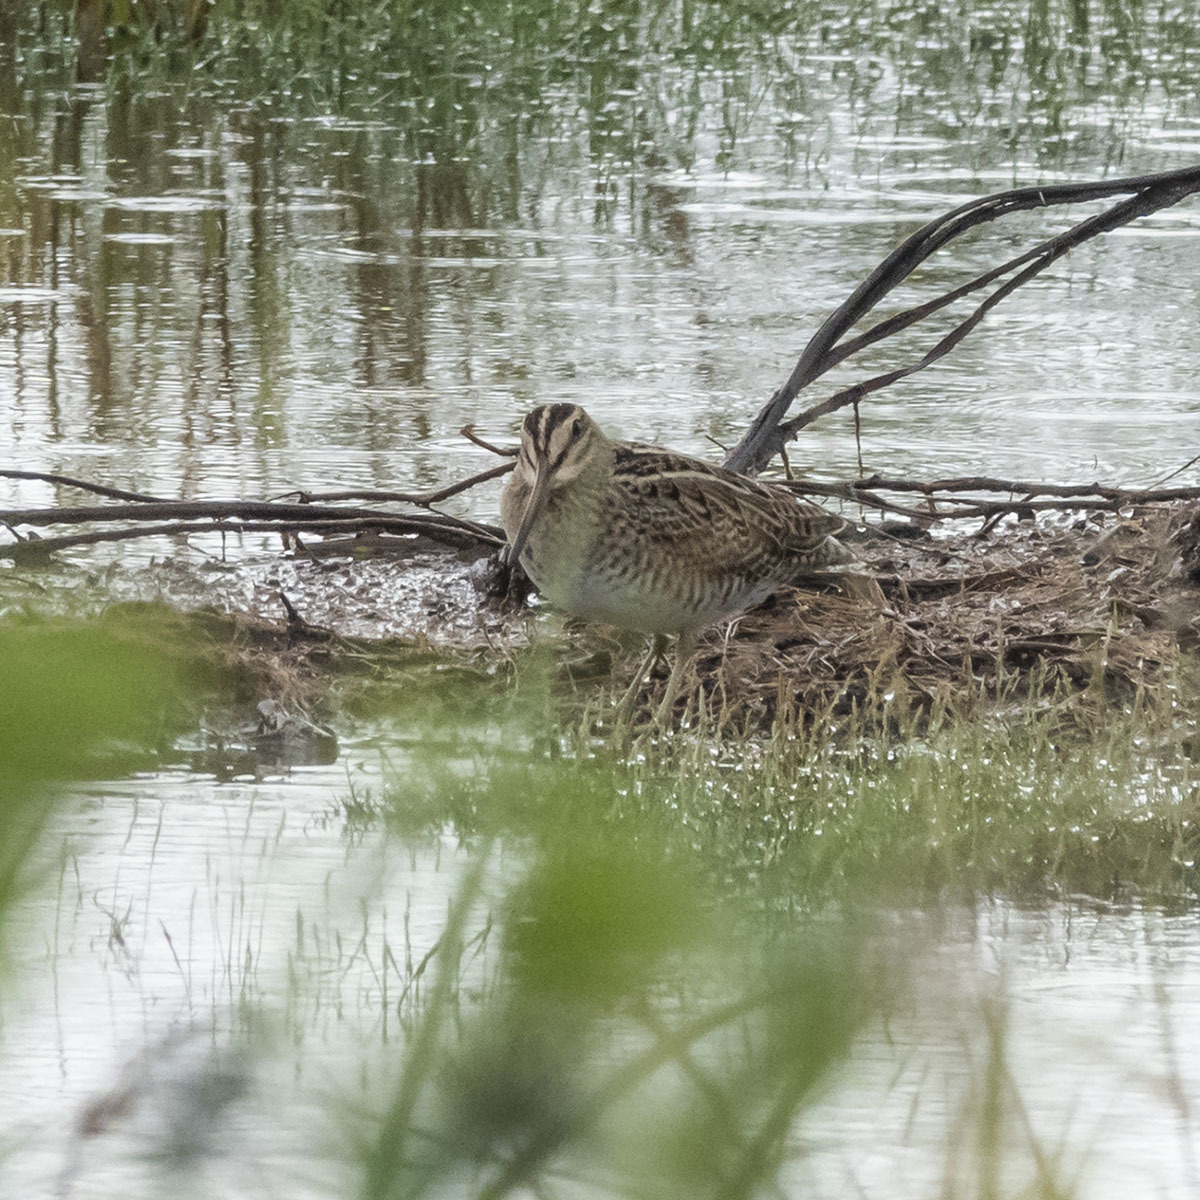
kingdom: Animalia
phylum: Chordata
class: Aves
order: Charadriiformes
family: Scolopacidae
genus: Gallinago
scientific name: Gallinago gallinago
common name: Common snipe
